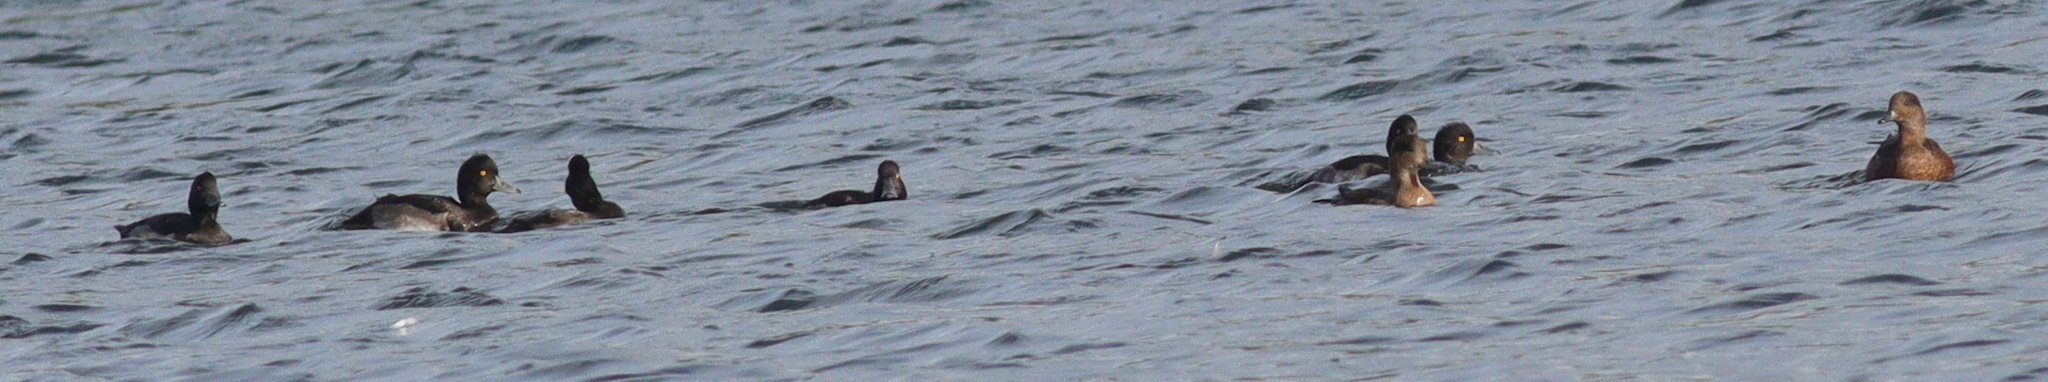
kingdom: Animalia
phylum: Chordata
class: Aves
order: Anseriformes
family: Anatidae
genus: Aythya
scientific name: Aythya fuligula
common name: Tufted duck
